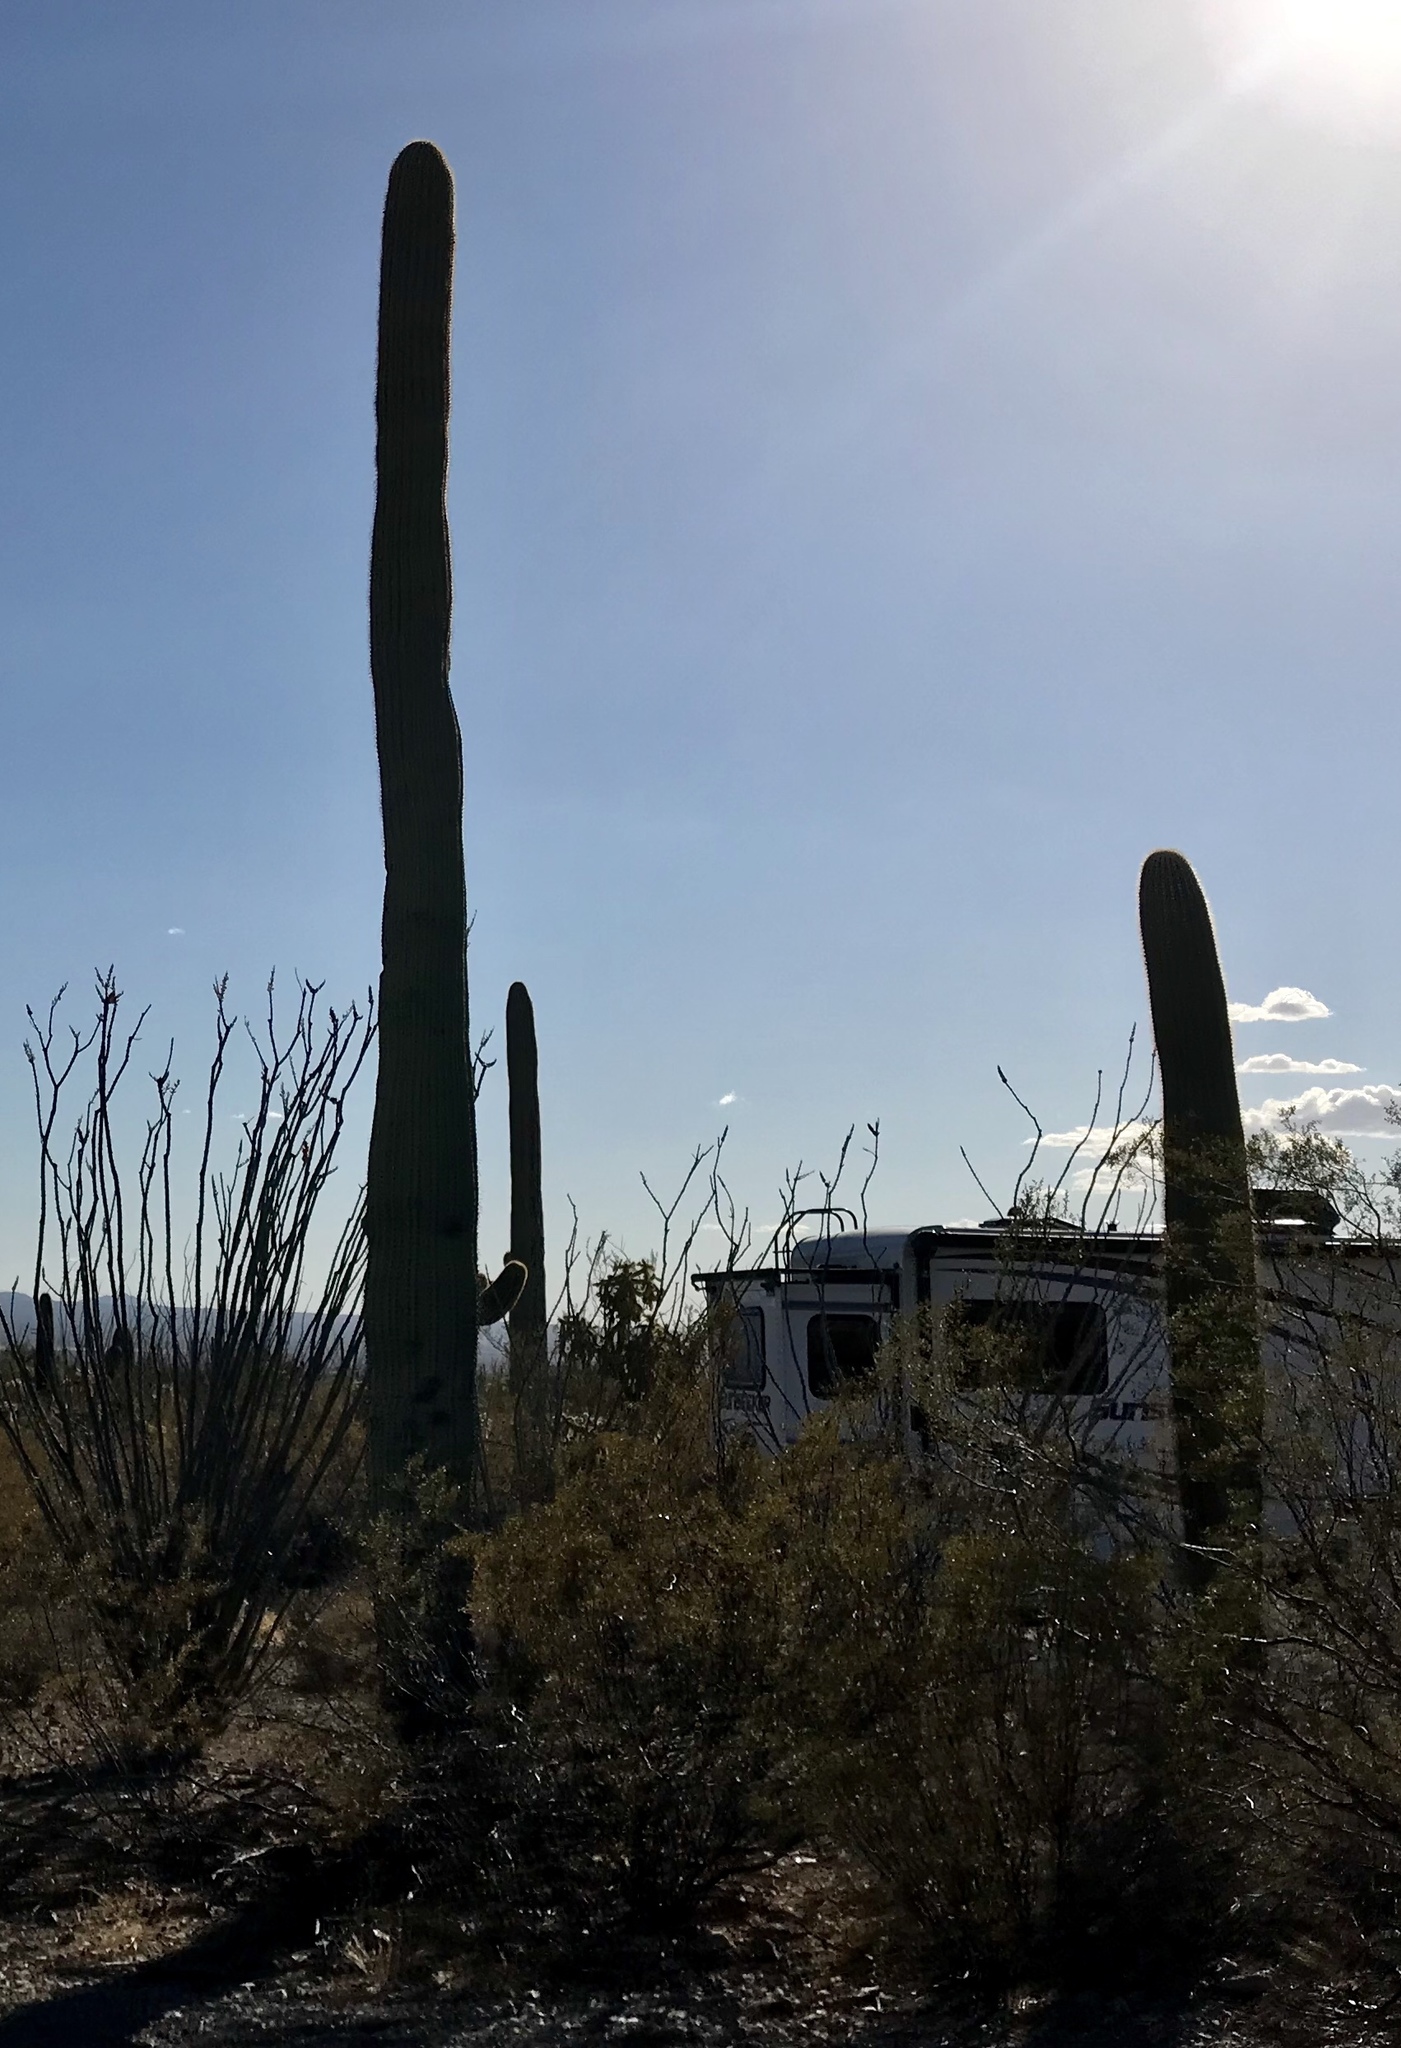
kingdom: Plantae
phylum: Tracheophyta
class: Magnoliopsida
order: Caryophyllales
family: Cactaceae
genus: Carnegiea
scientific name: Carnegiea gigantea
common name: Saguaro
